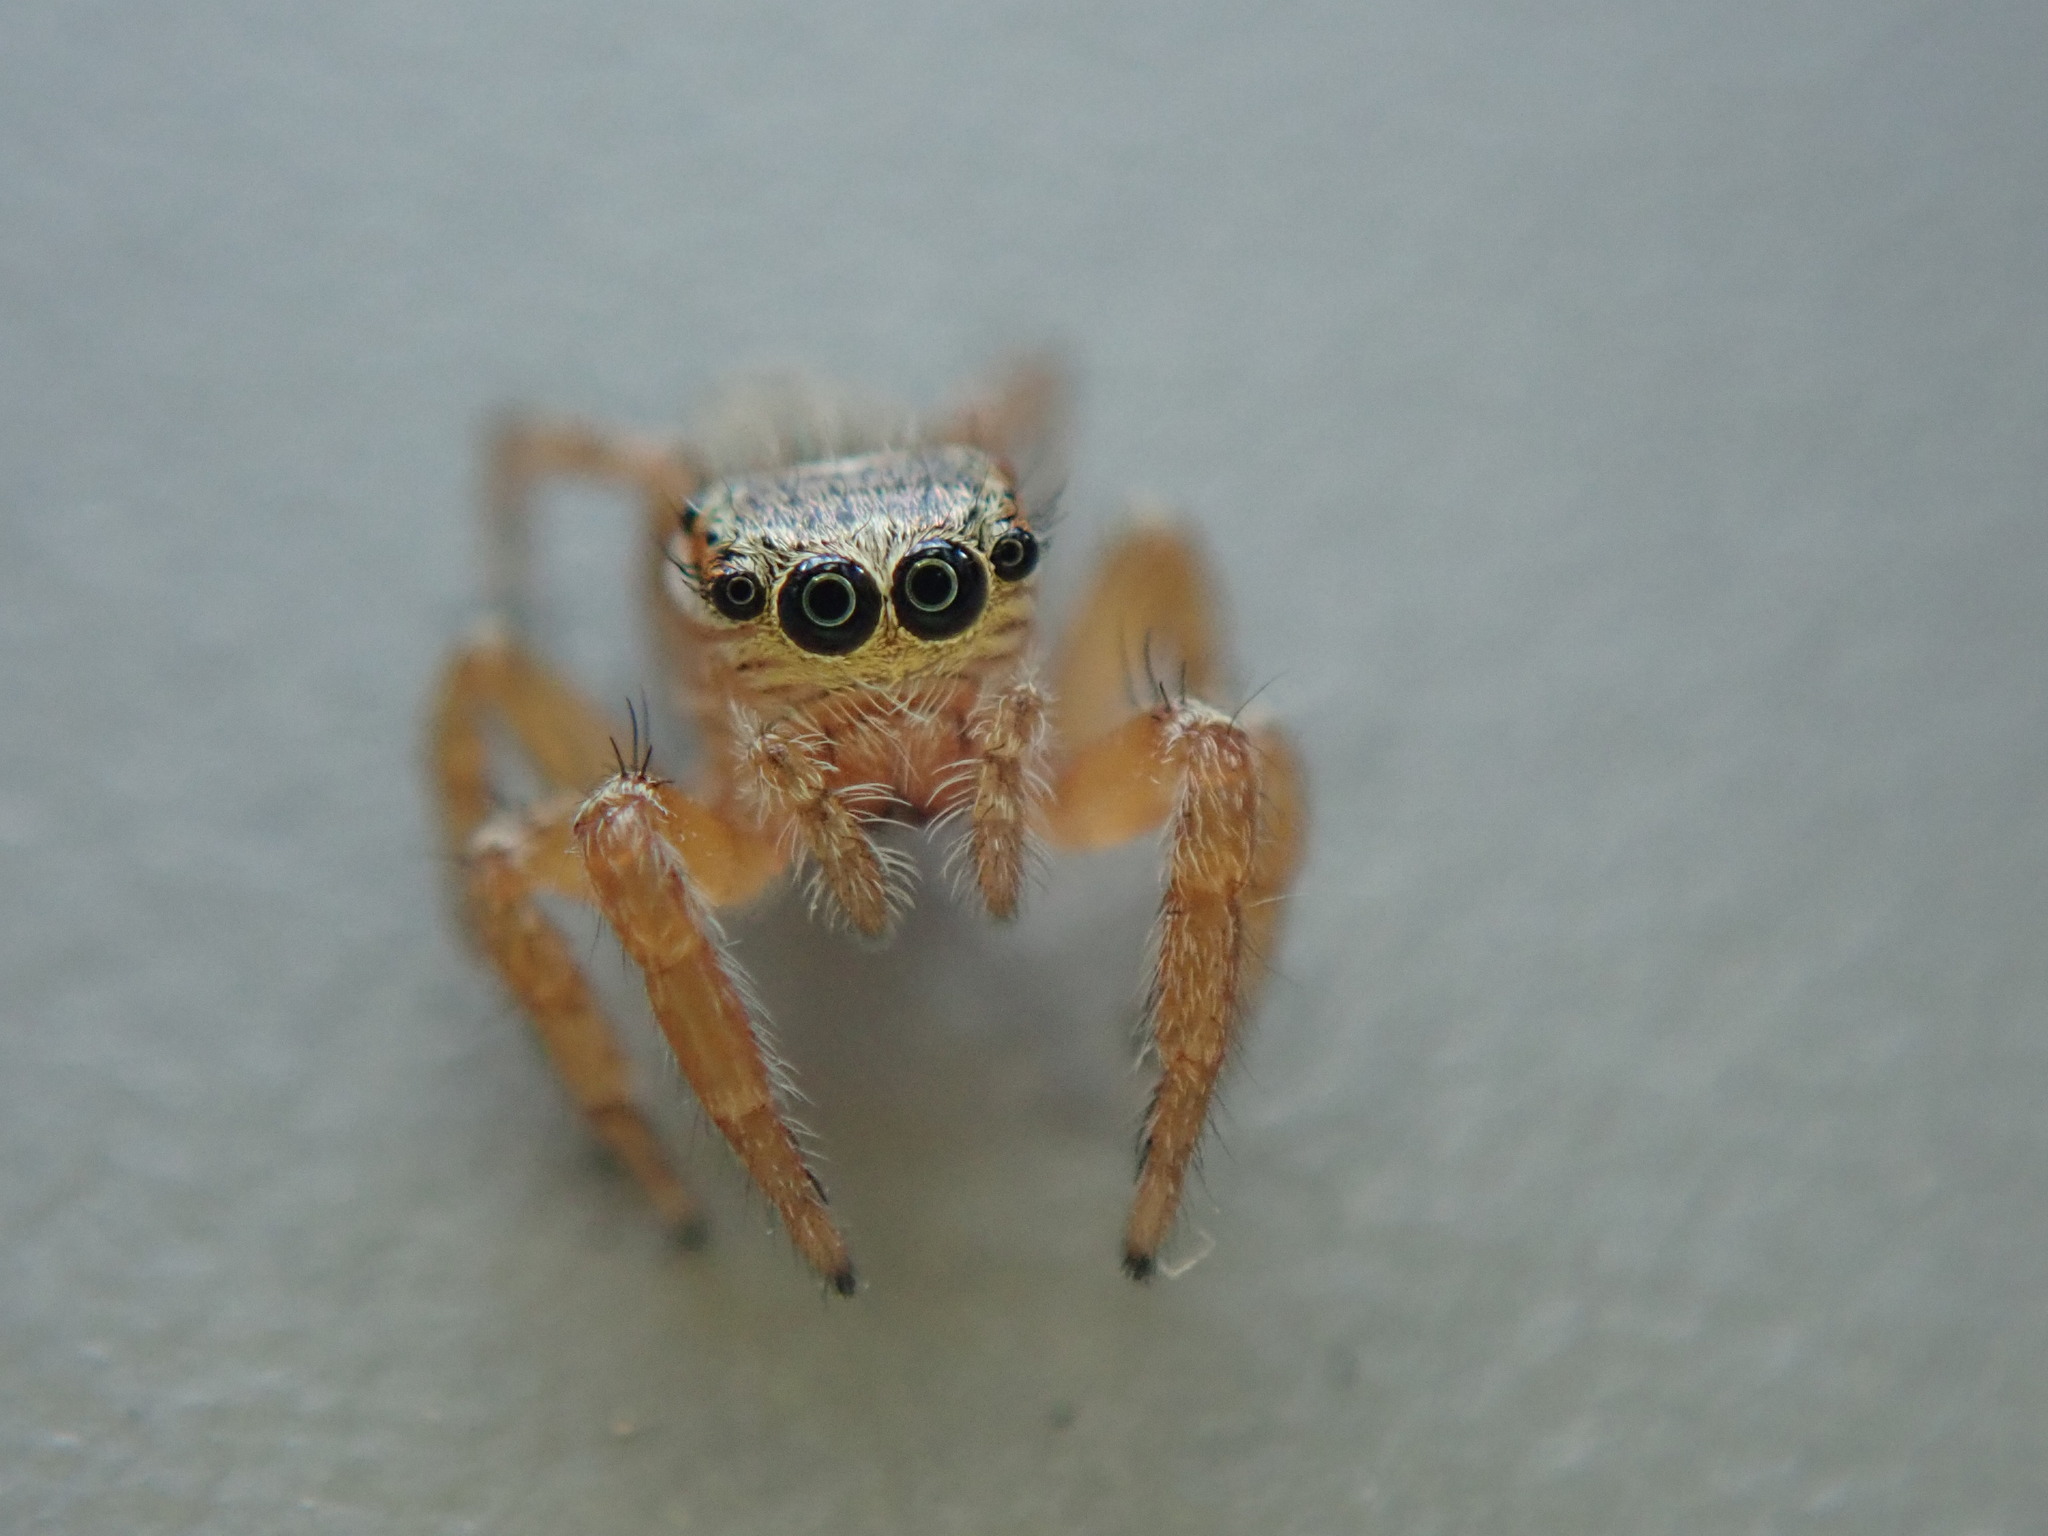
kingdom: Animalia
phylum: Arthropoda
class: Arachnida
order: Araneae
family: Salticidae
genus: Evarcha
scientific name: Evarcha jucunda
